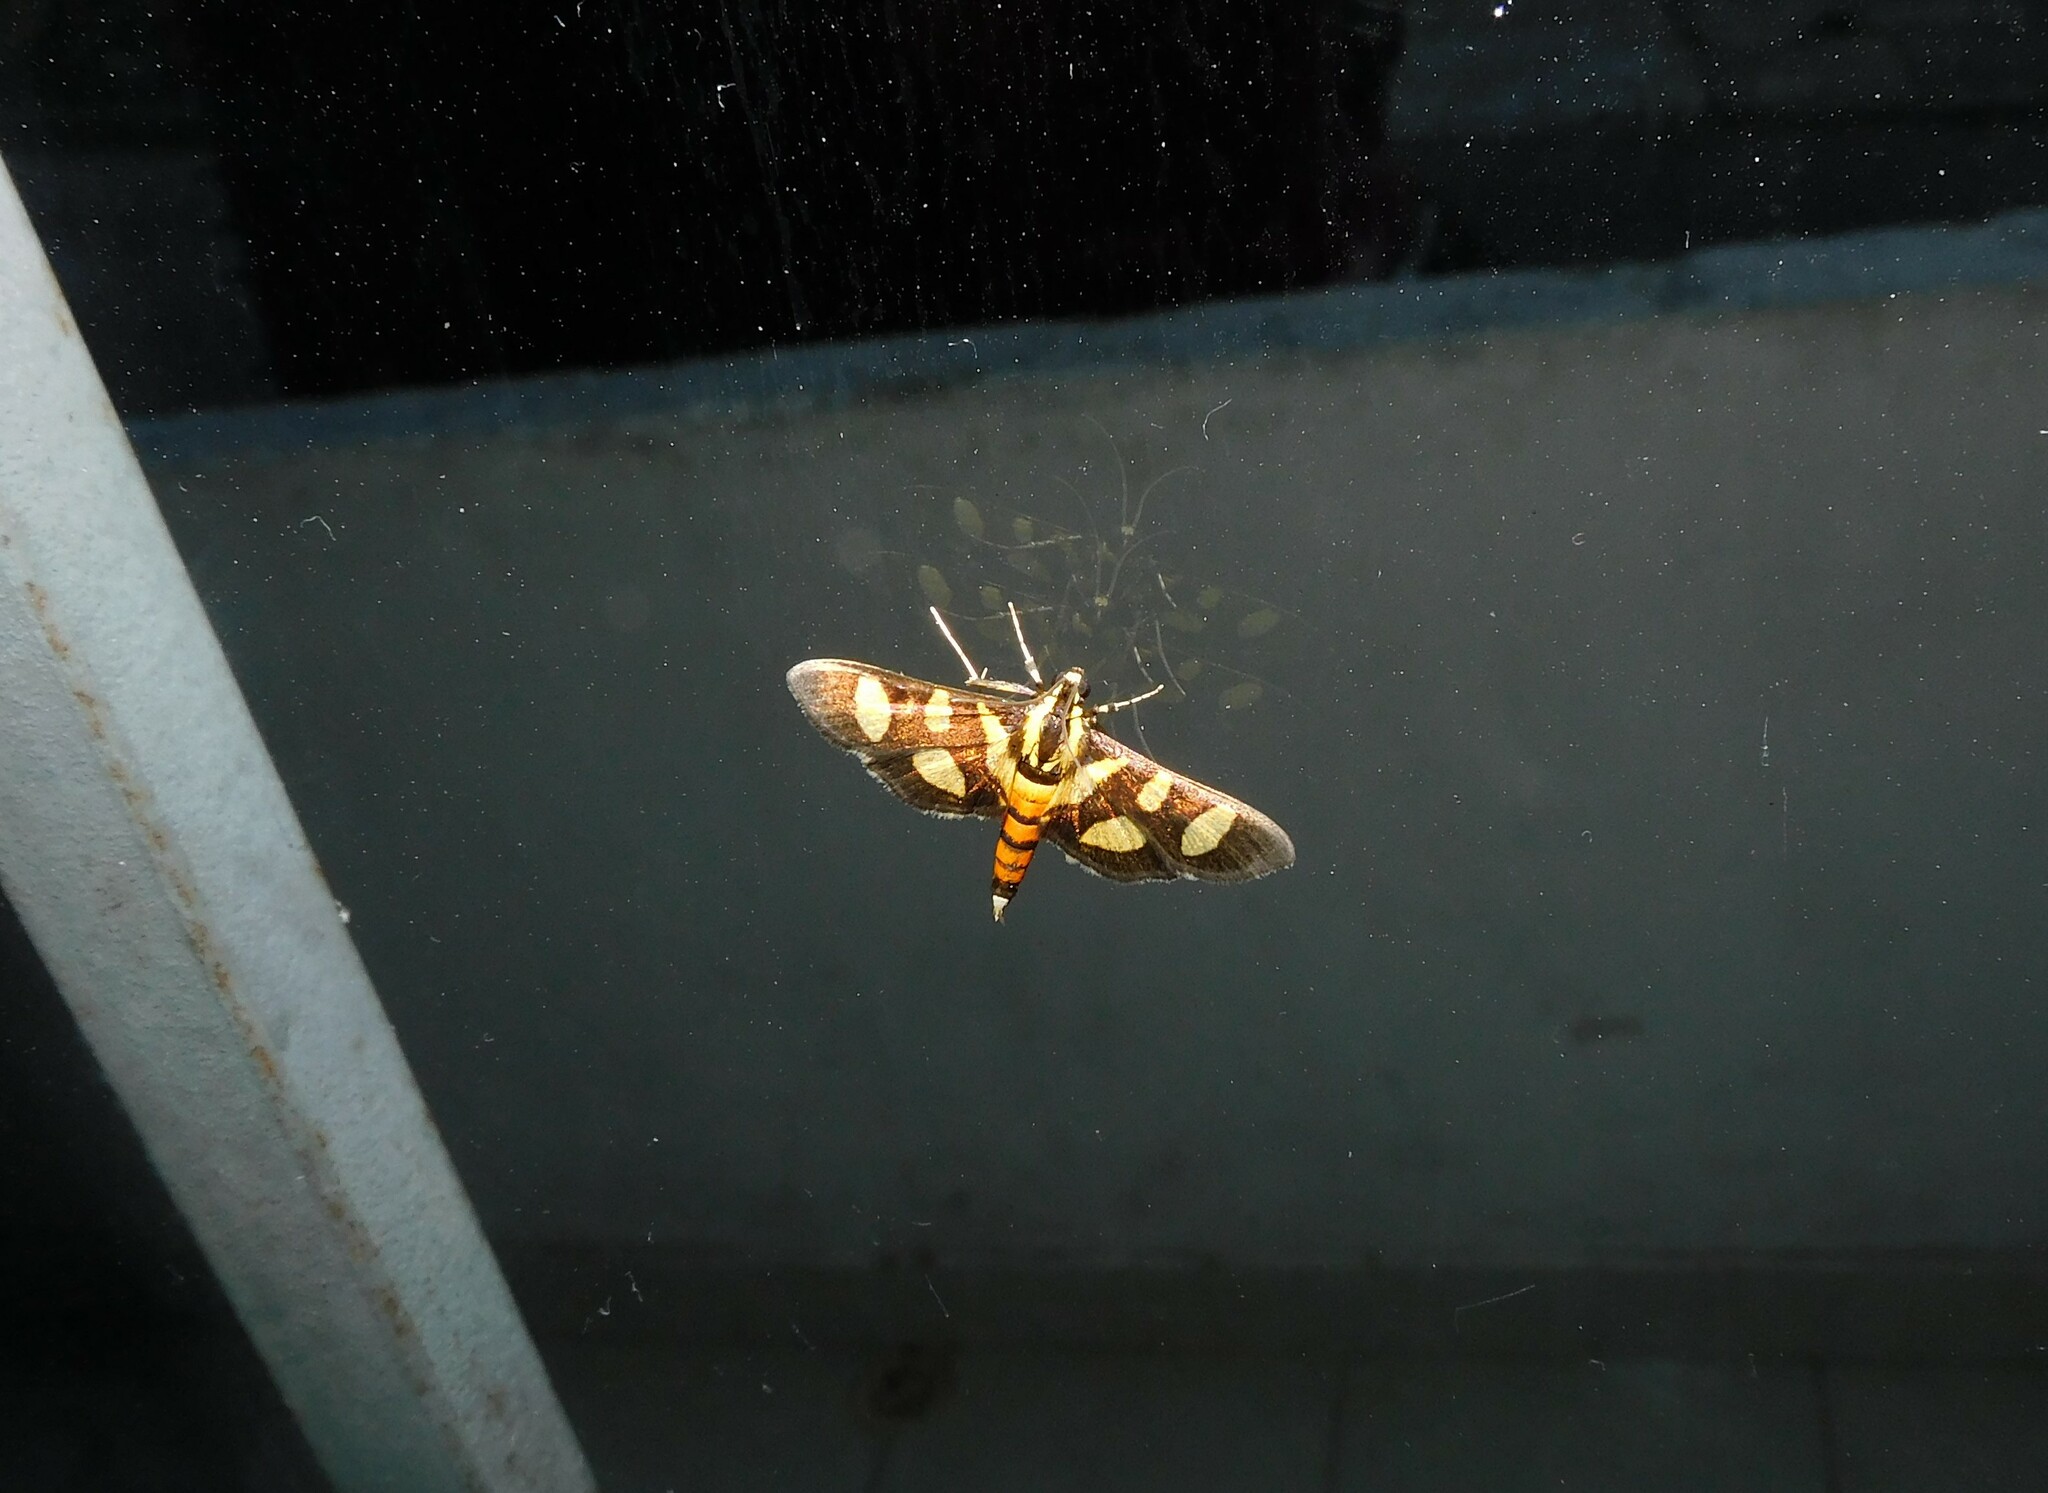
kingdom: Animalia
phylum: Arthropoda
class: Insecta
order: Lepidoptera
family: Crambidae
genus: Syngamia
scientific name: Syngamia florella
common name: Orange-spotted flower moth
